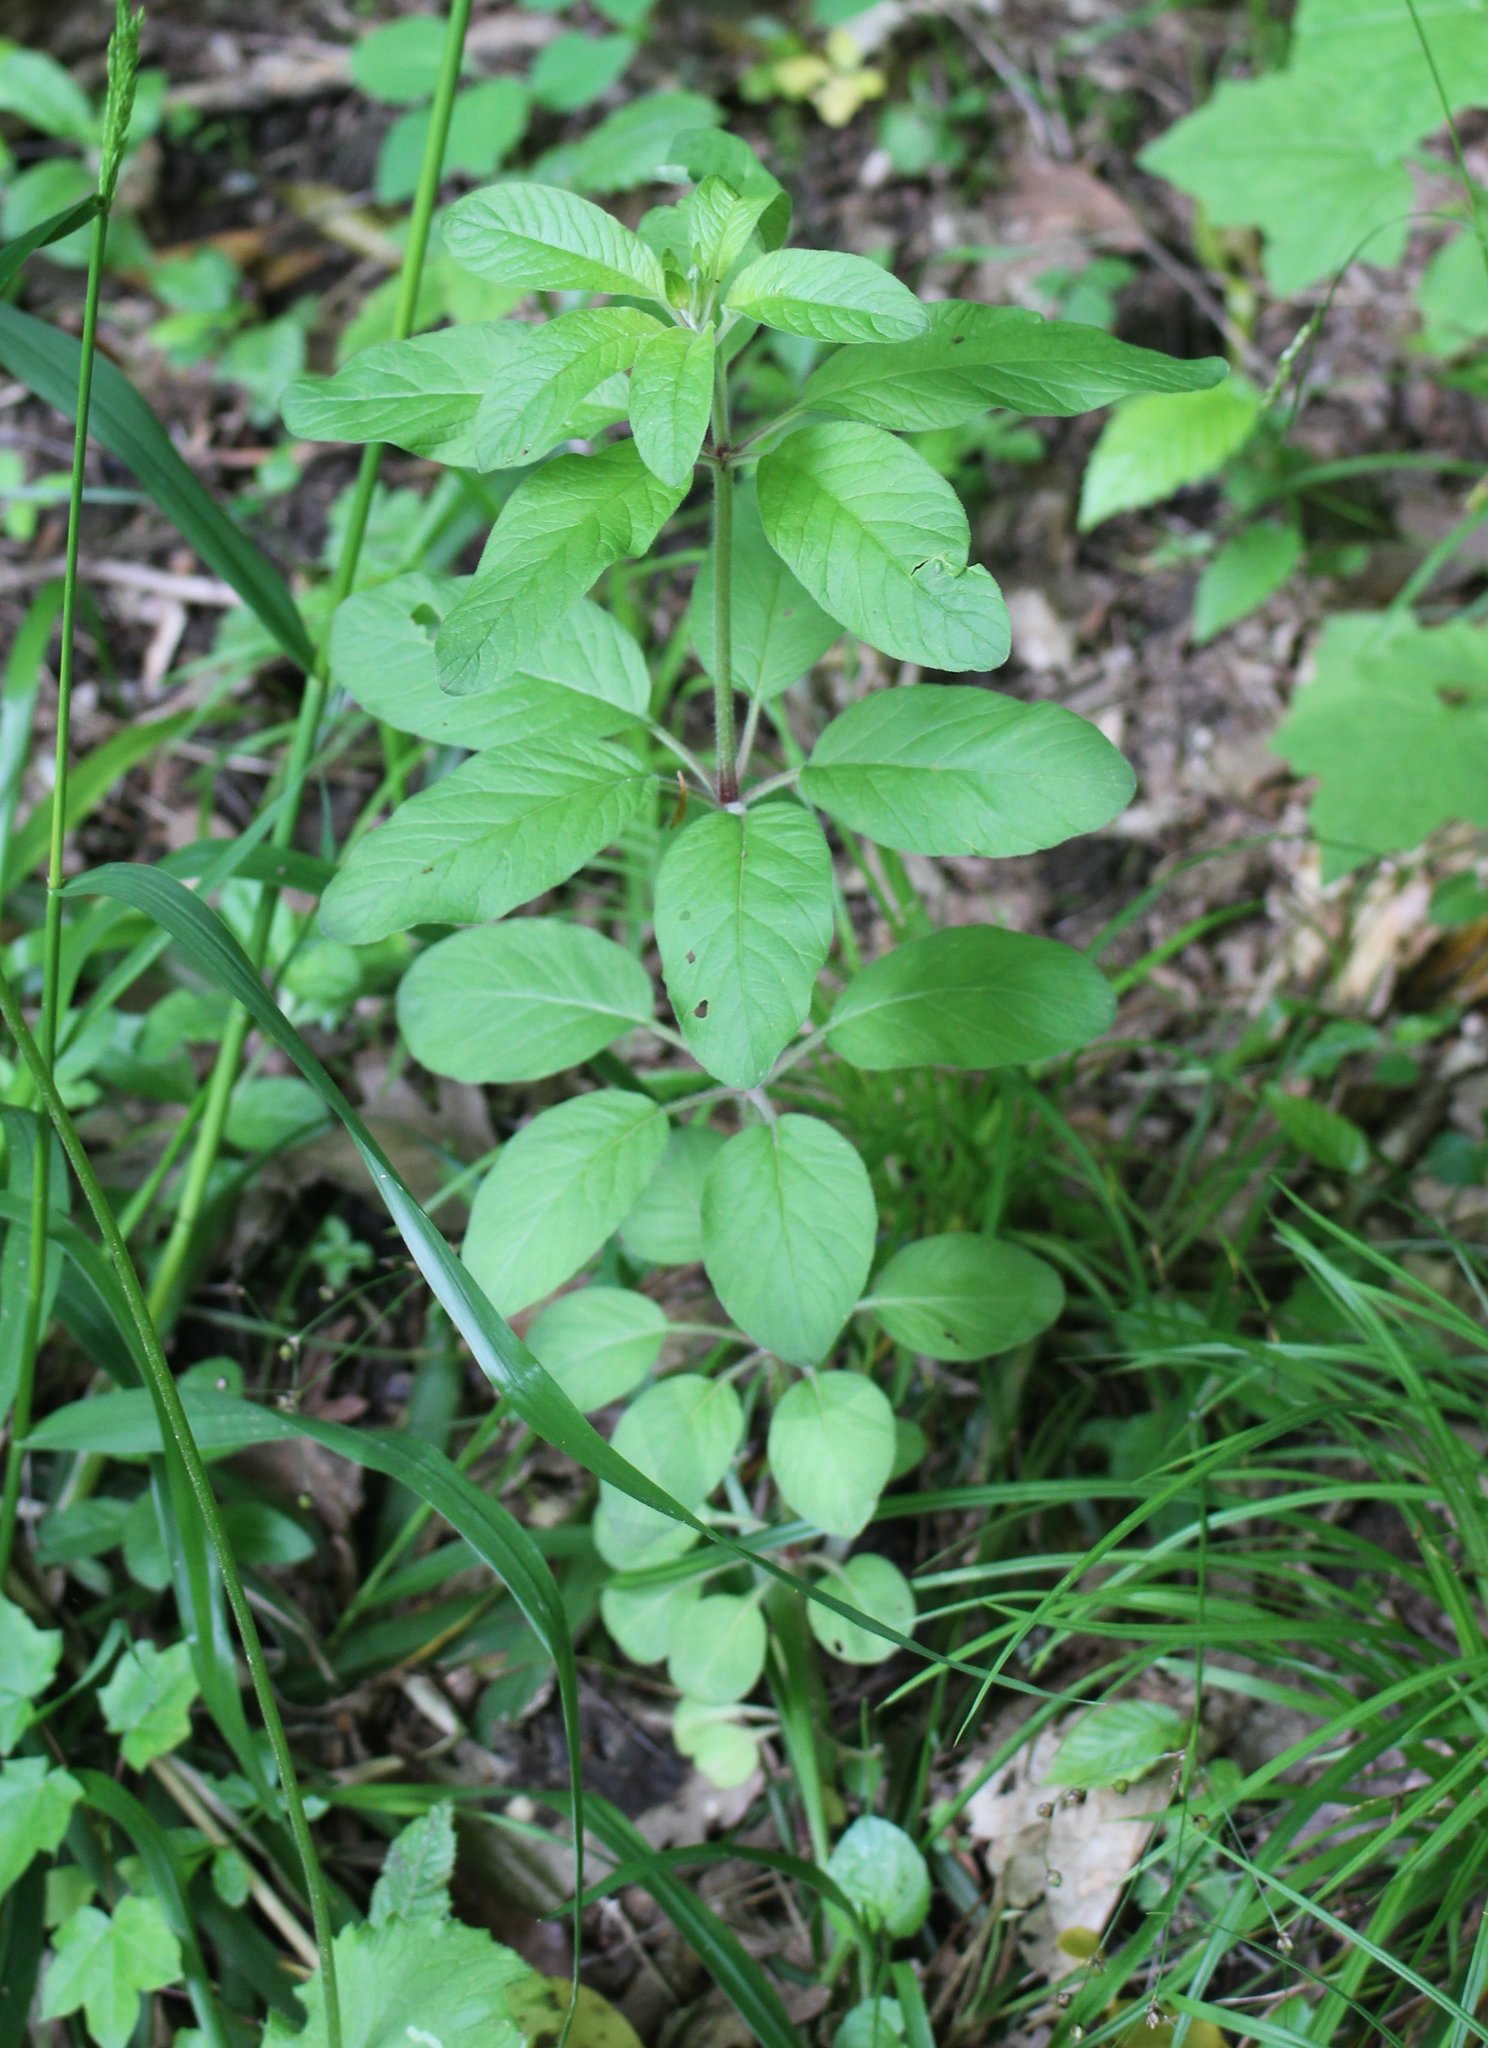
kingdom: Plantae
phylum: Tracheophyta
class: Magnoliopsida
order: Ericales
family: Primulaceae
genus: Lysimachia
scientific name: Lysimachia verticillaris
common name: Yellow loosestrife
